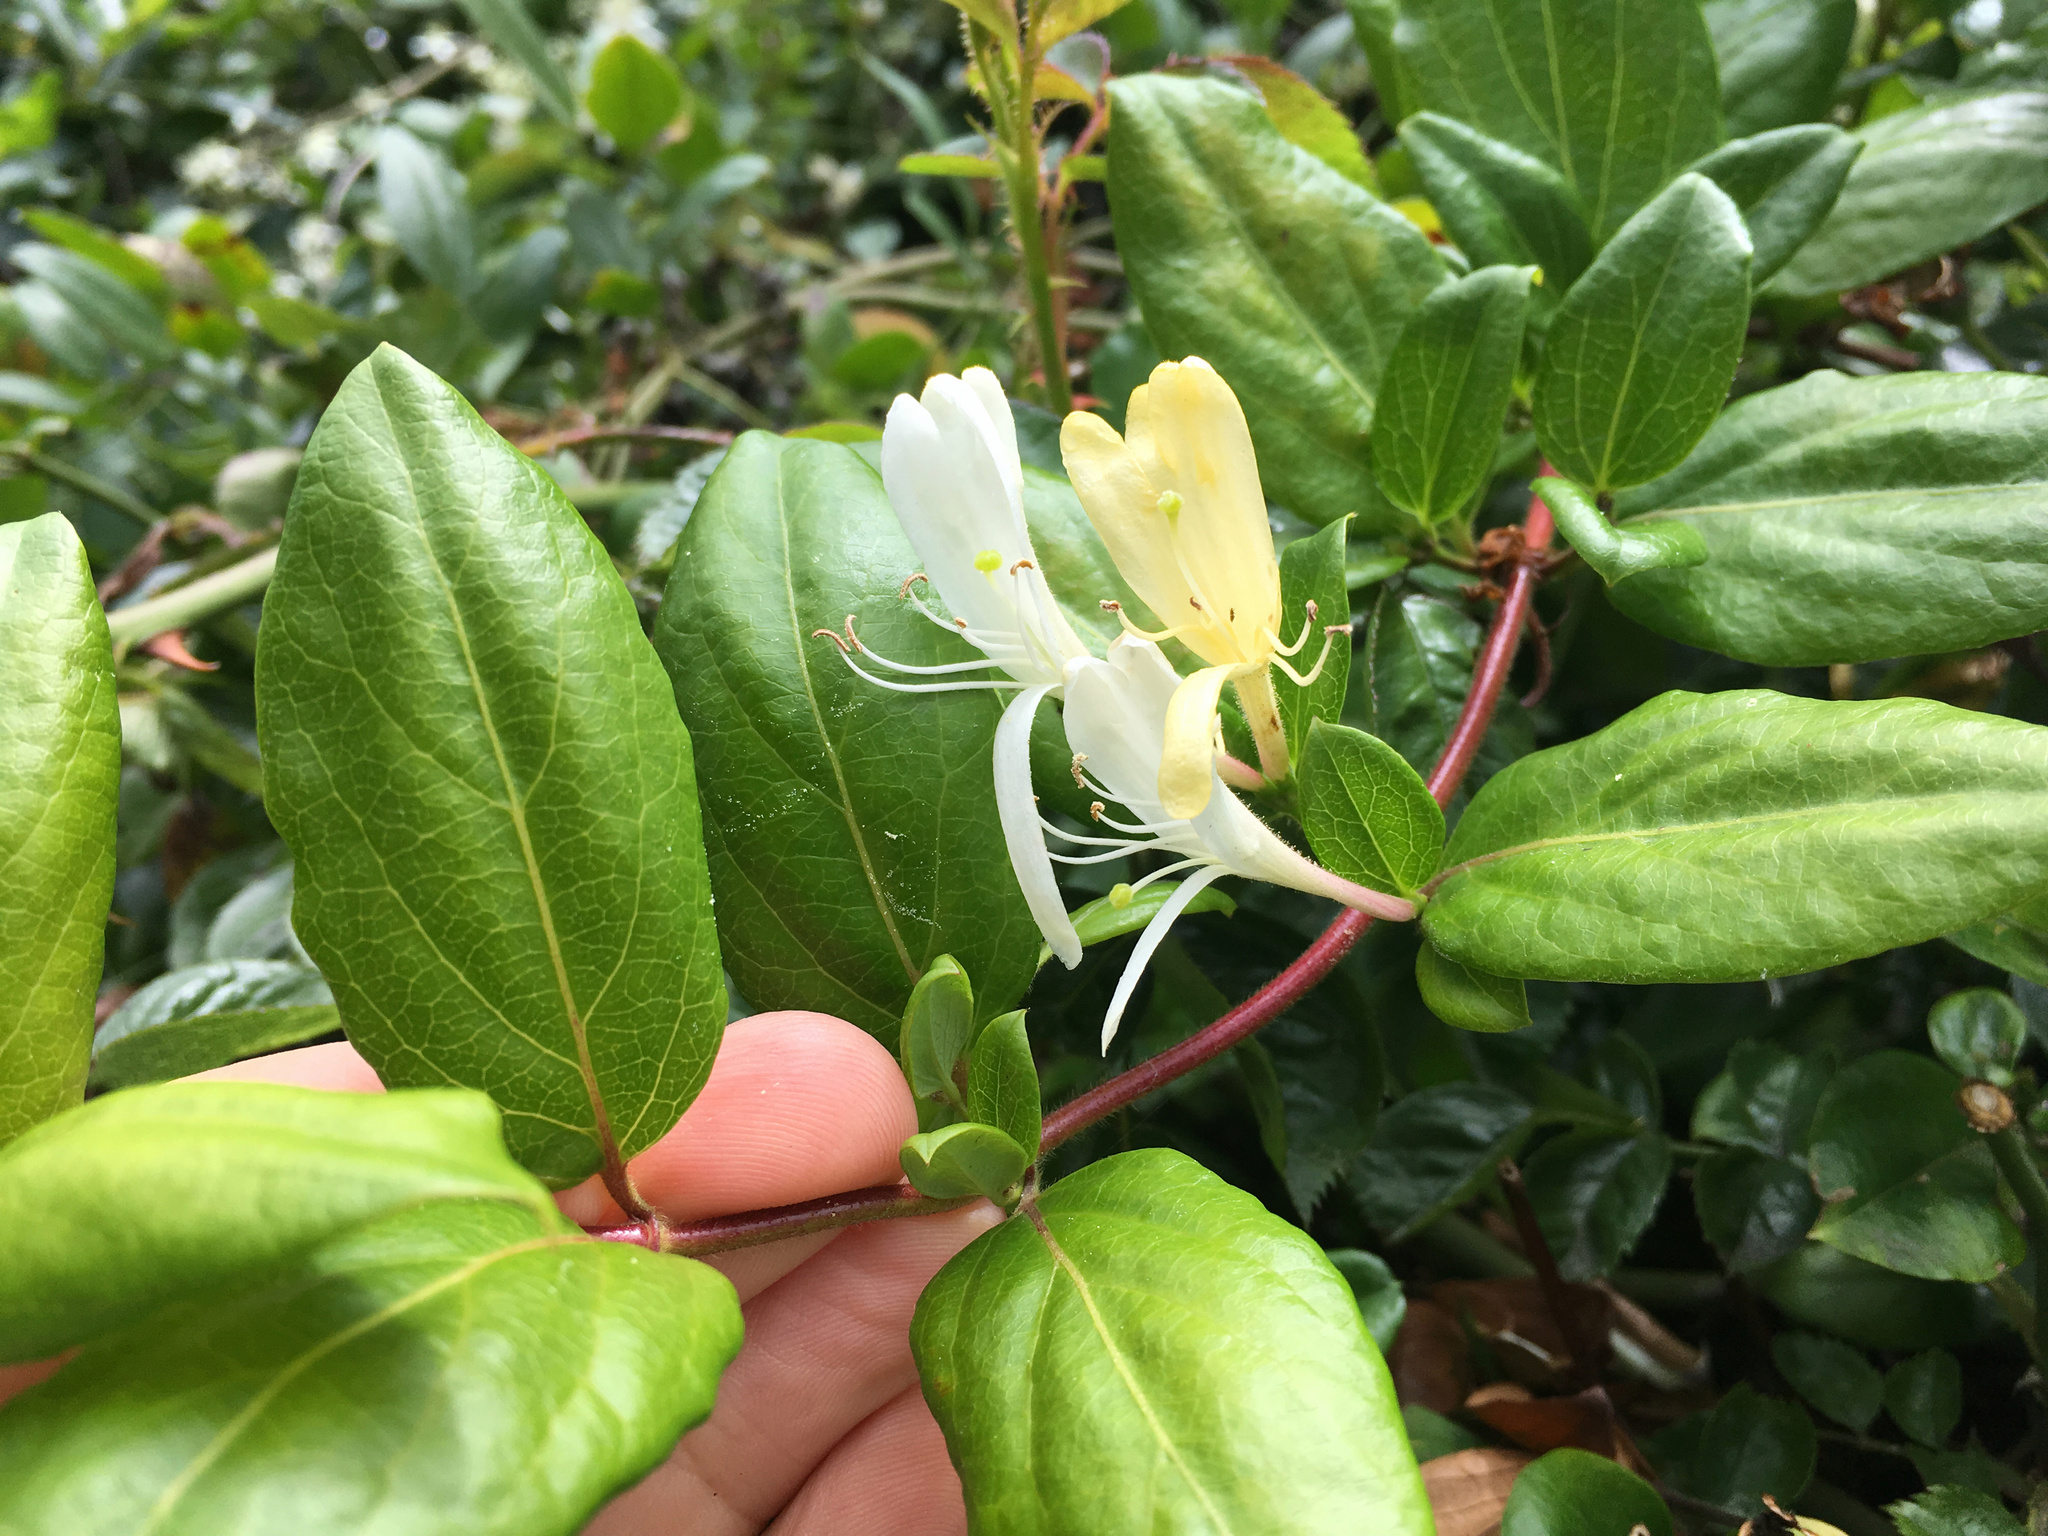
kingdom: Plantae
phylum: Tracheophyta
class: Magnoliopsida
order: Dipsacales
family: Caprifoliaceae
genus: Lonicera
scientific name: Lonicera japonica
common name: Japanese honeysuckle
